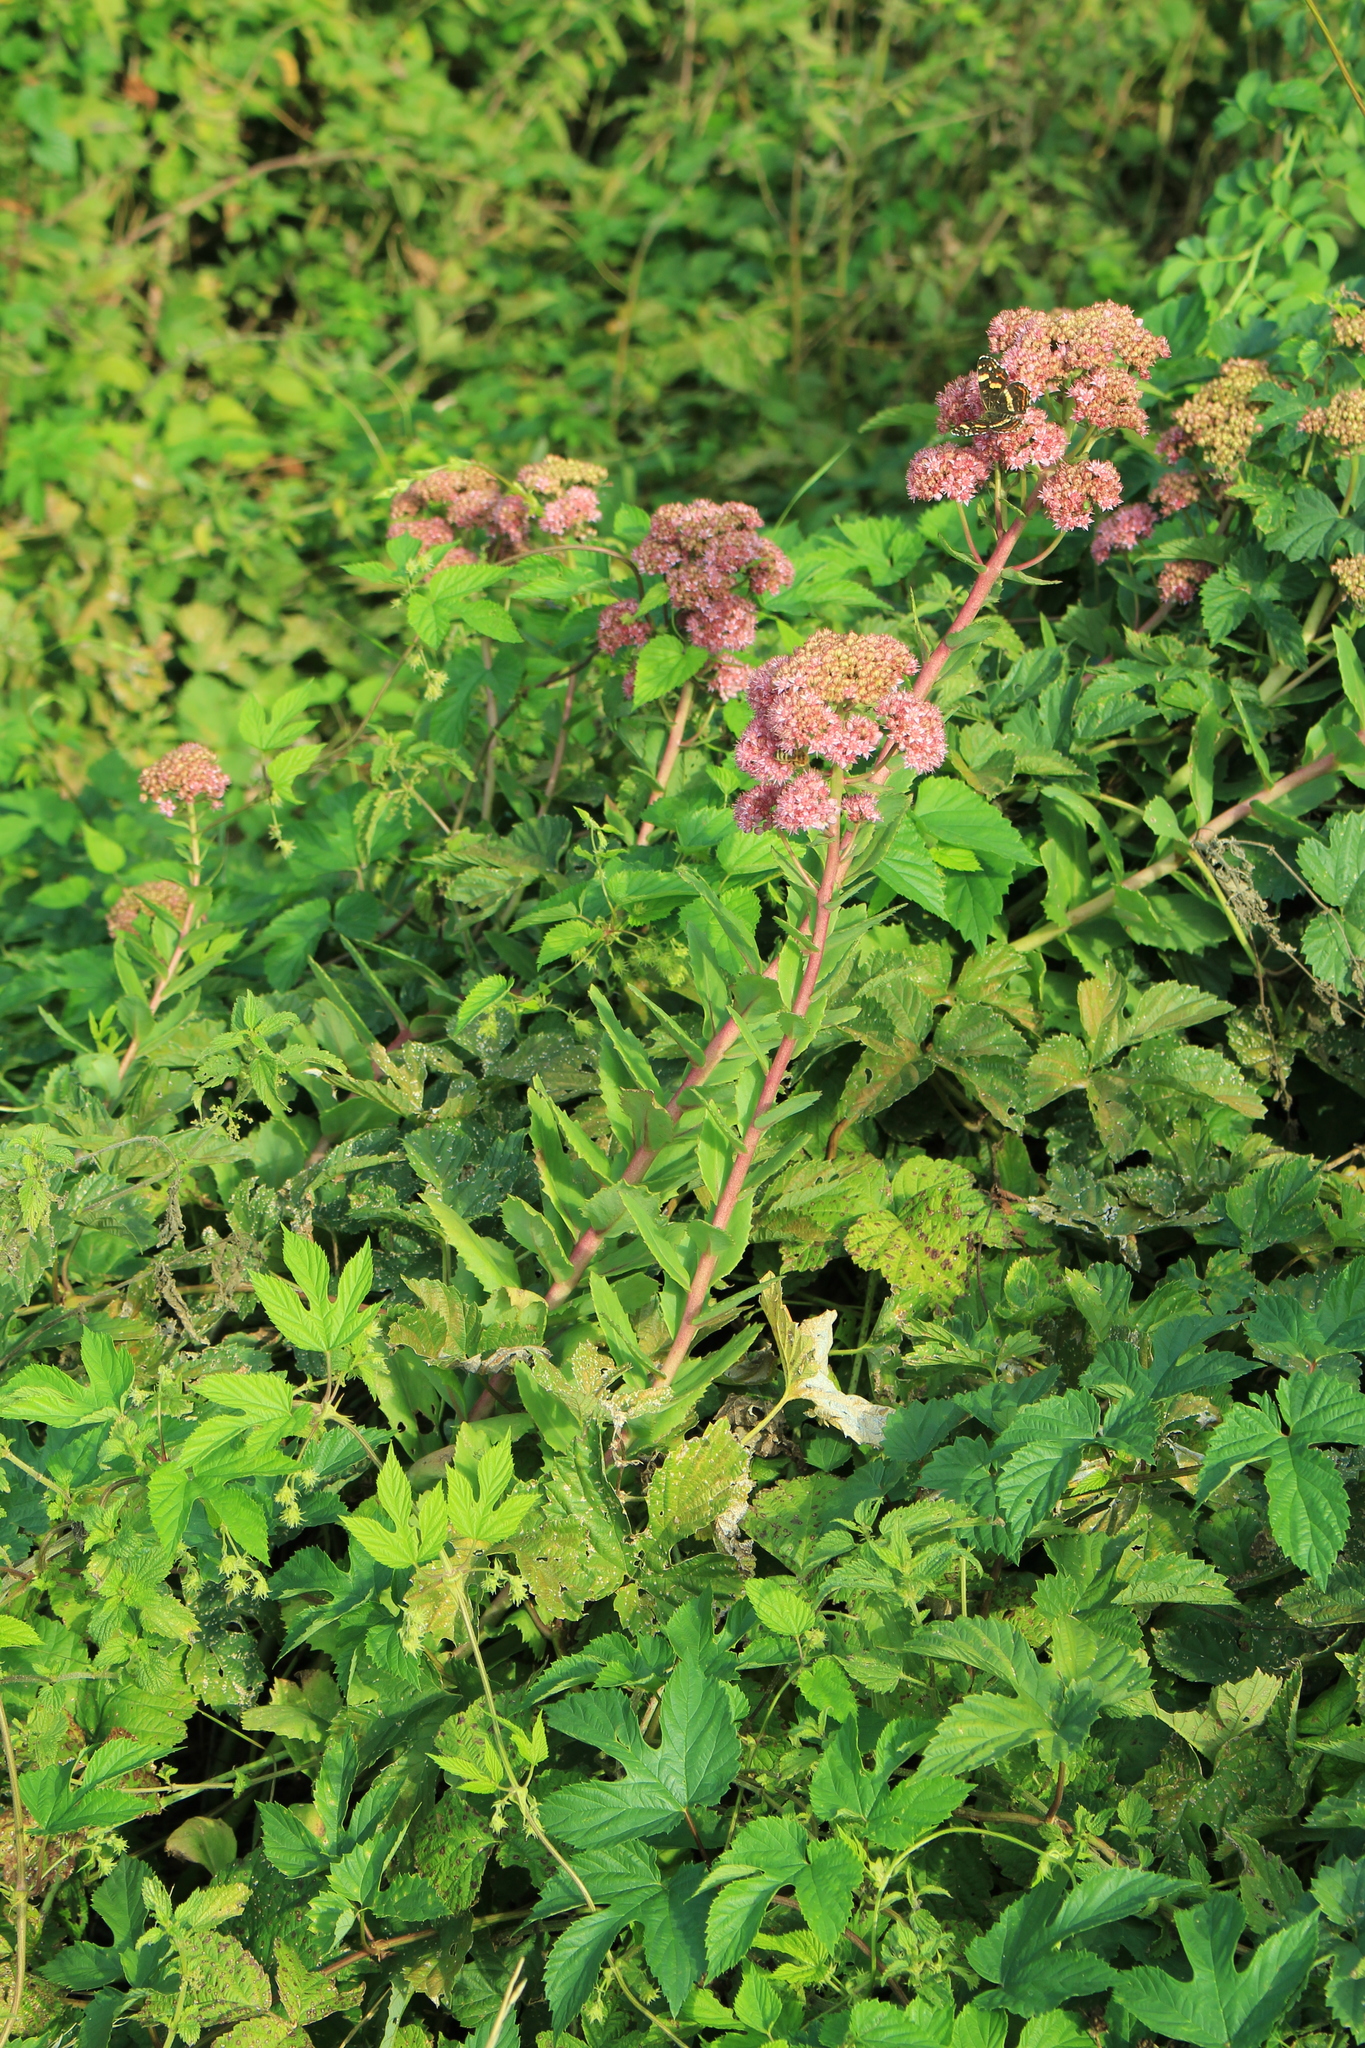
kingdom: Plantae
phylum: Tracheophyta
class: Magnoliopsida
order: Saxifragales
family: Crassulaceae
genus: Hylotelephium
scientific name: Hylotelephium telephium
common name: Live-forever
